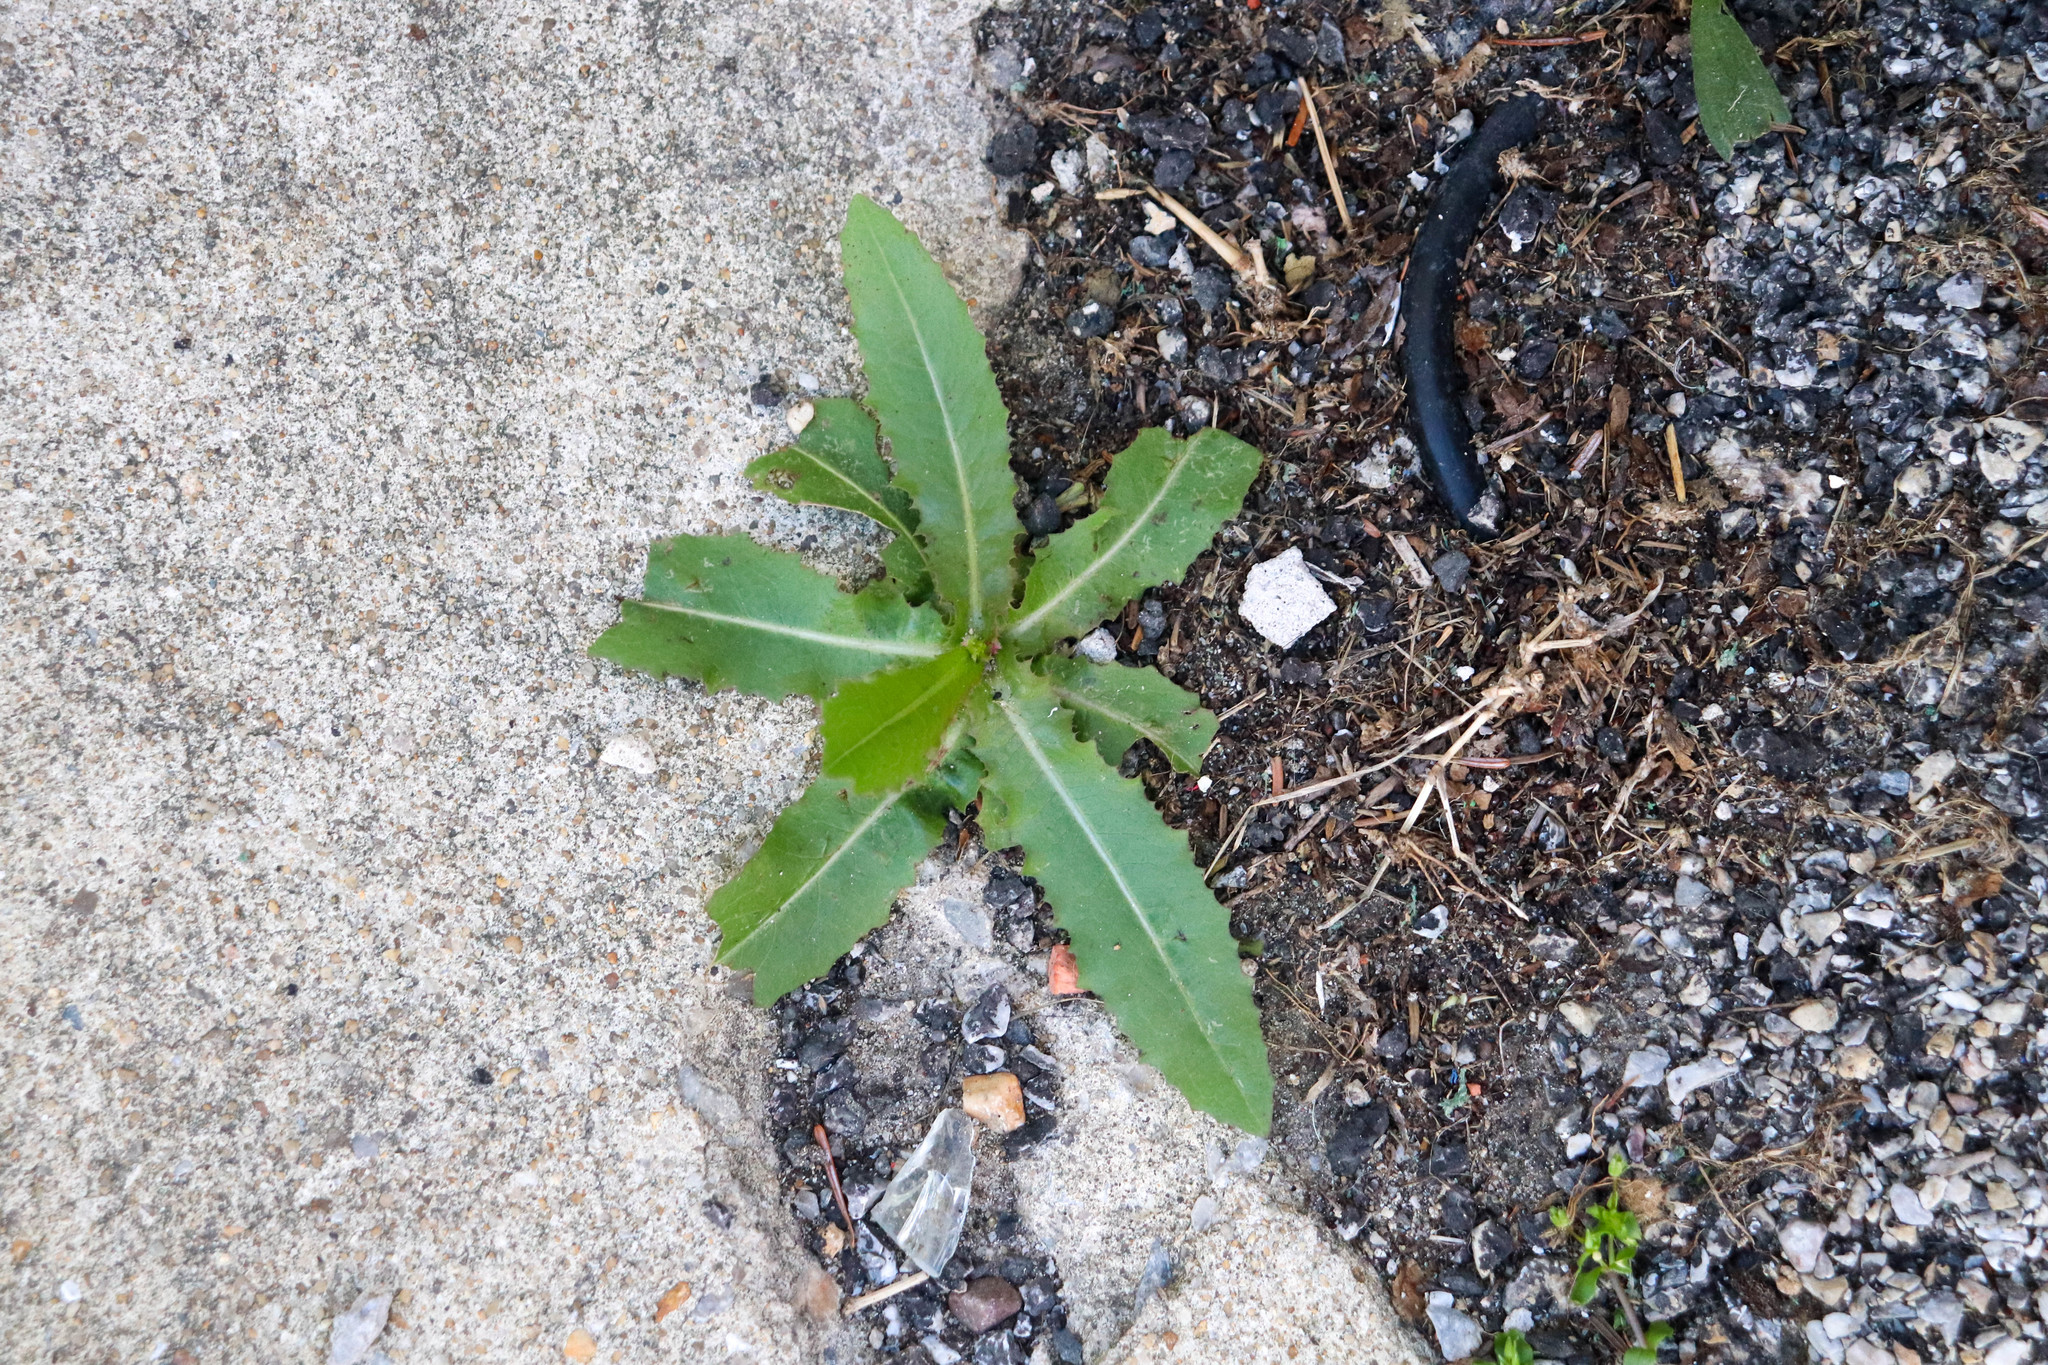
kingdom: Plantae
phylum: Tracheophyta
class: Magnoliopsida
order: Asterales
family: Asteraceae
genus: Lactuca
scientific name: Lactuca serriola
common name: Prickly lettuce
